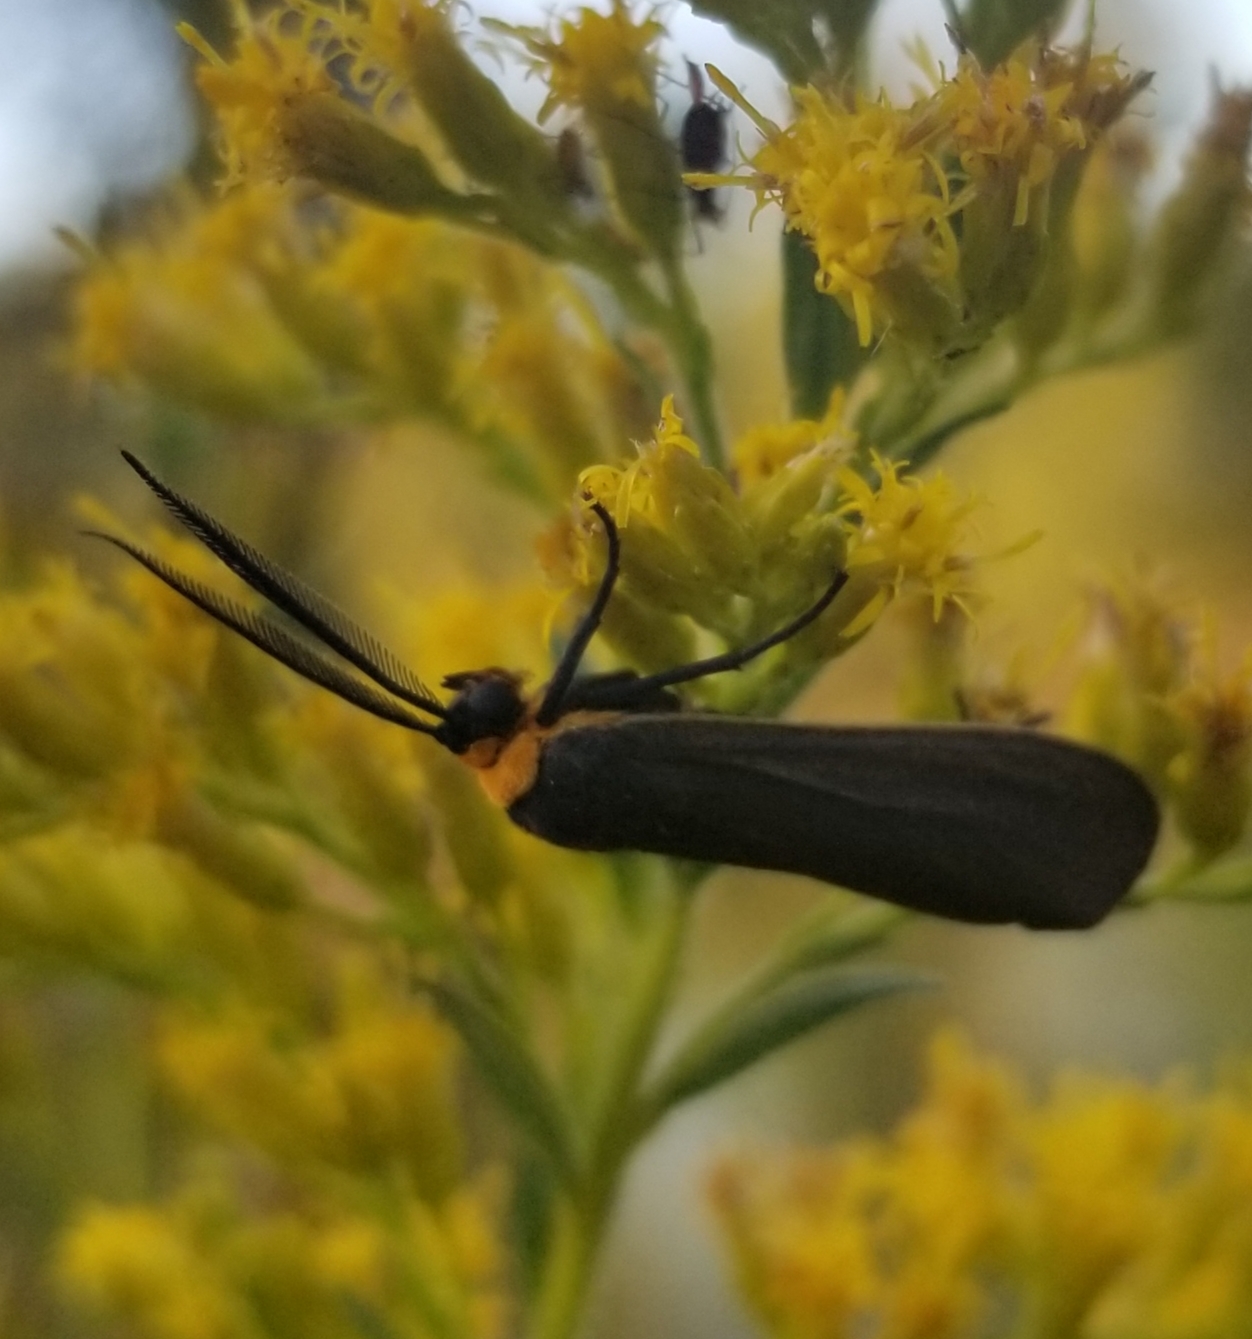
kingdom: Animalia
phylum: Arthropoda
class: Insecta
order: Lepidoptera
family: Erebidae
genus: Cisseps
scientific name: Cisseps fulvicollis
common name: Yellow-collared scape moth
